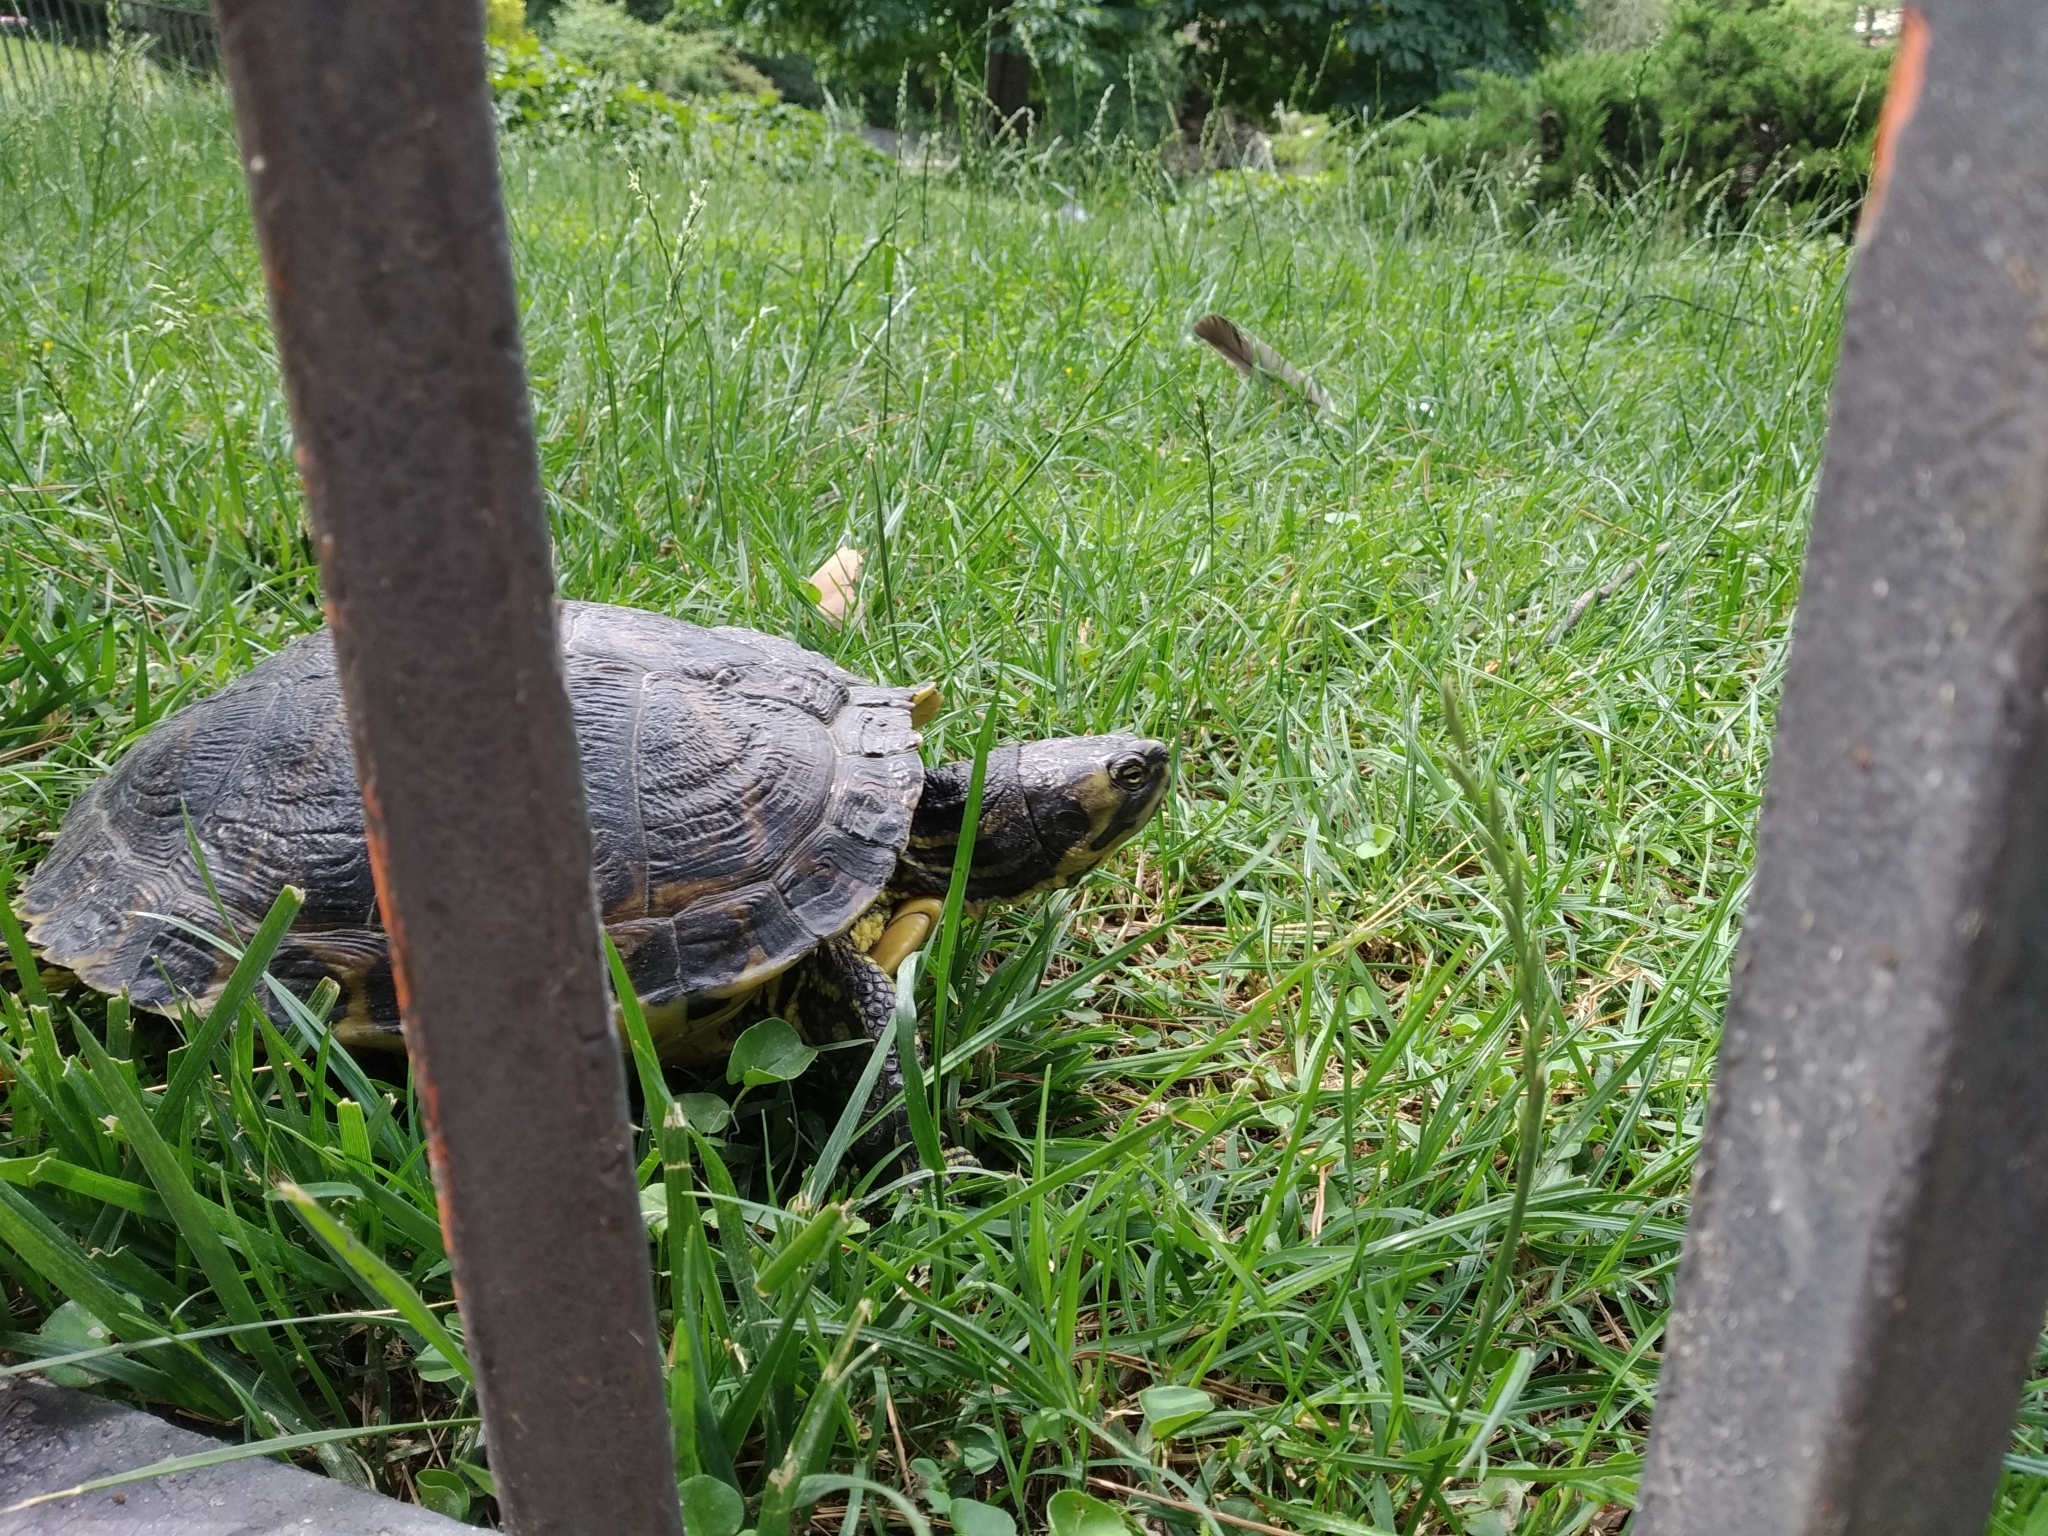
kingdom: Animalia
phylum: Chordata
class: Testudines
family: Emydidae
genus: Trachemys
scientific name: Trachemys scripta
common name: Slider
